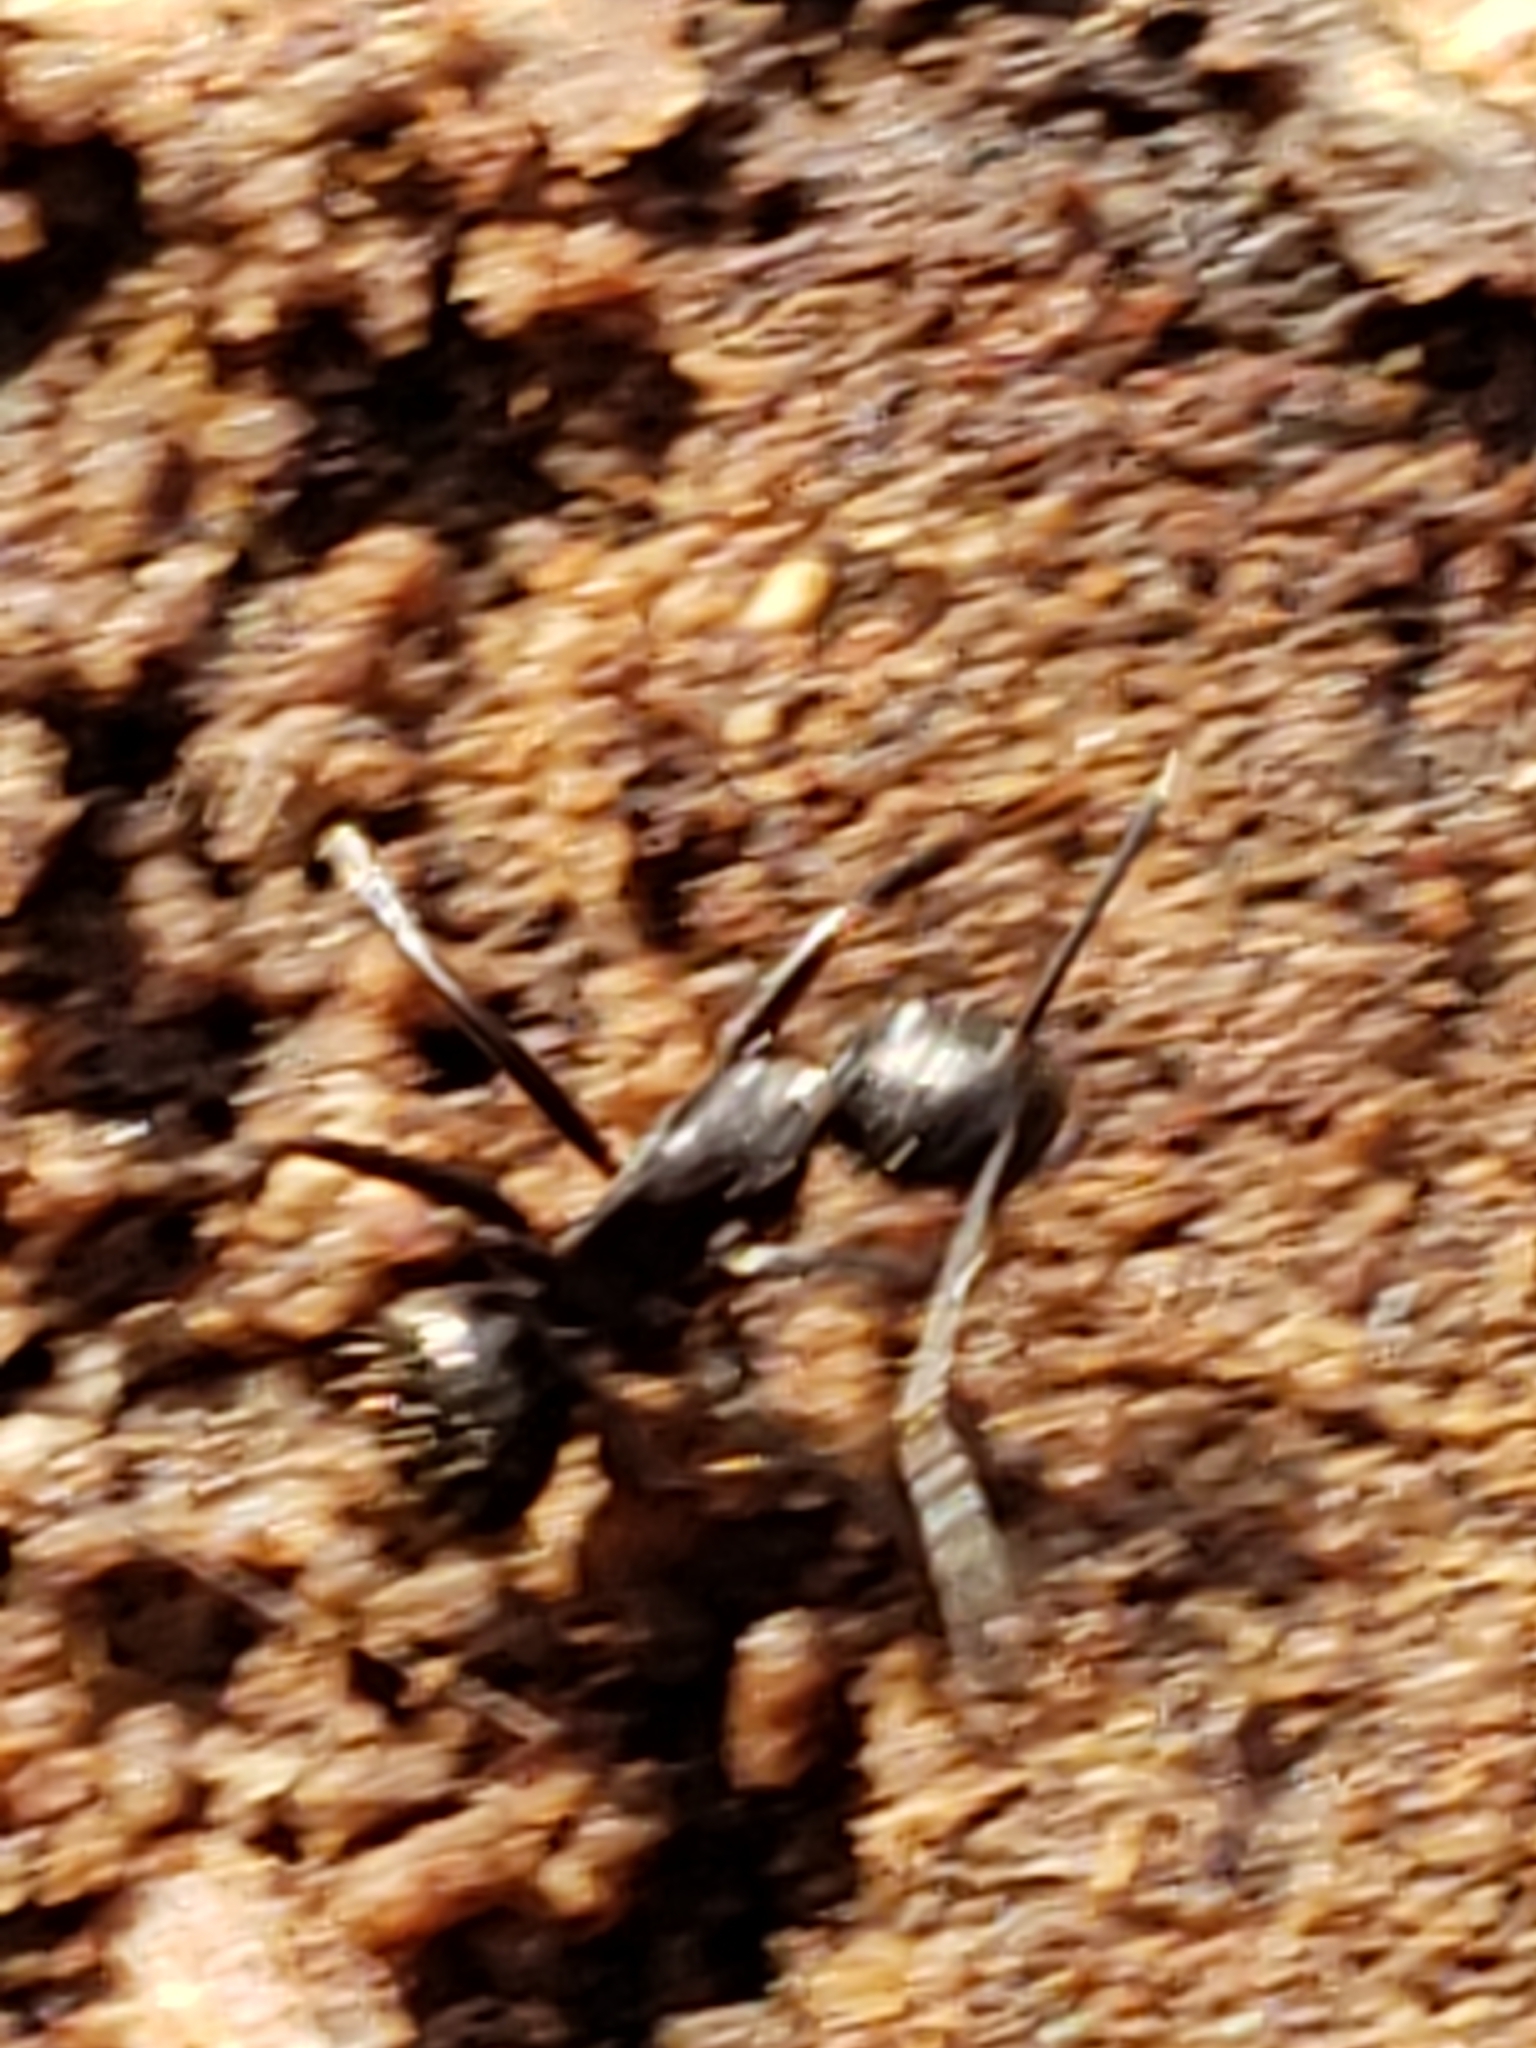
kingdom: Animalia
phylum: Arthropoda
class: Insecta
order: Hymenoptera
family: Formicidae
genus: Camponotus
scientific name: Camponotus pennsylvanicus
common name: Black carpenter ant
